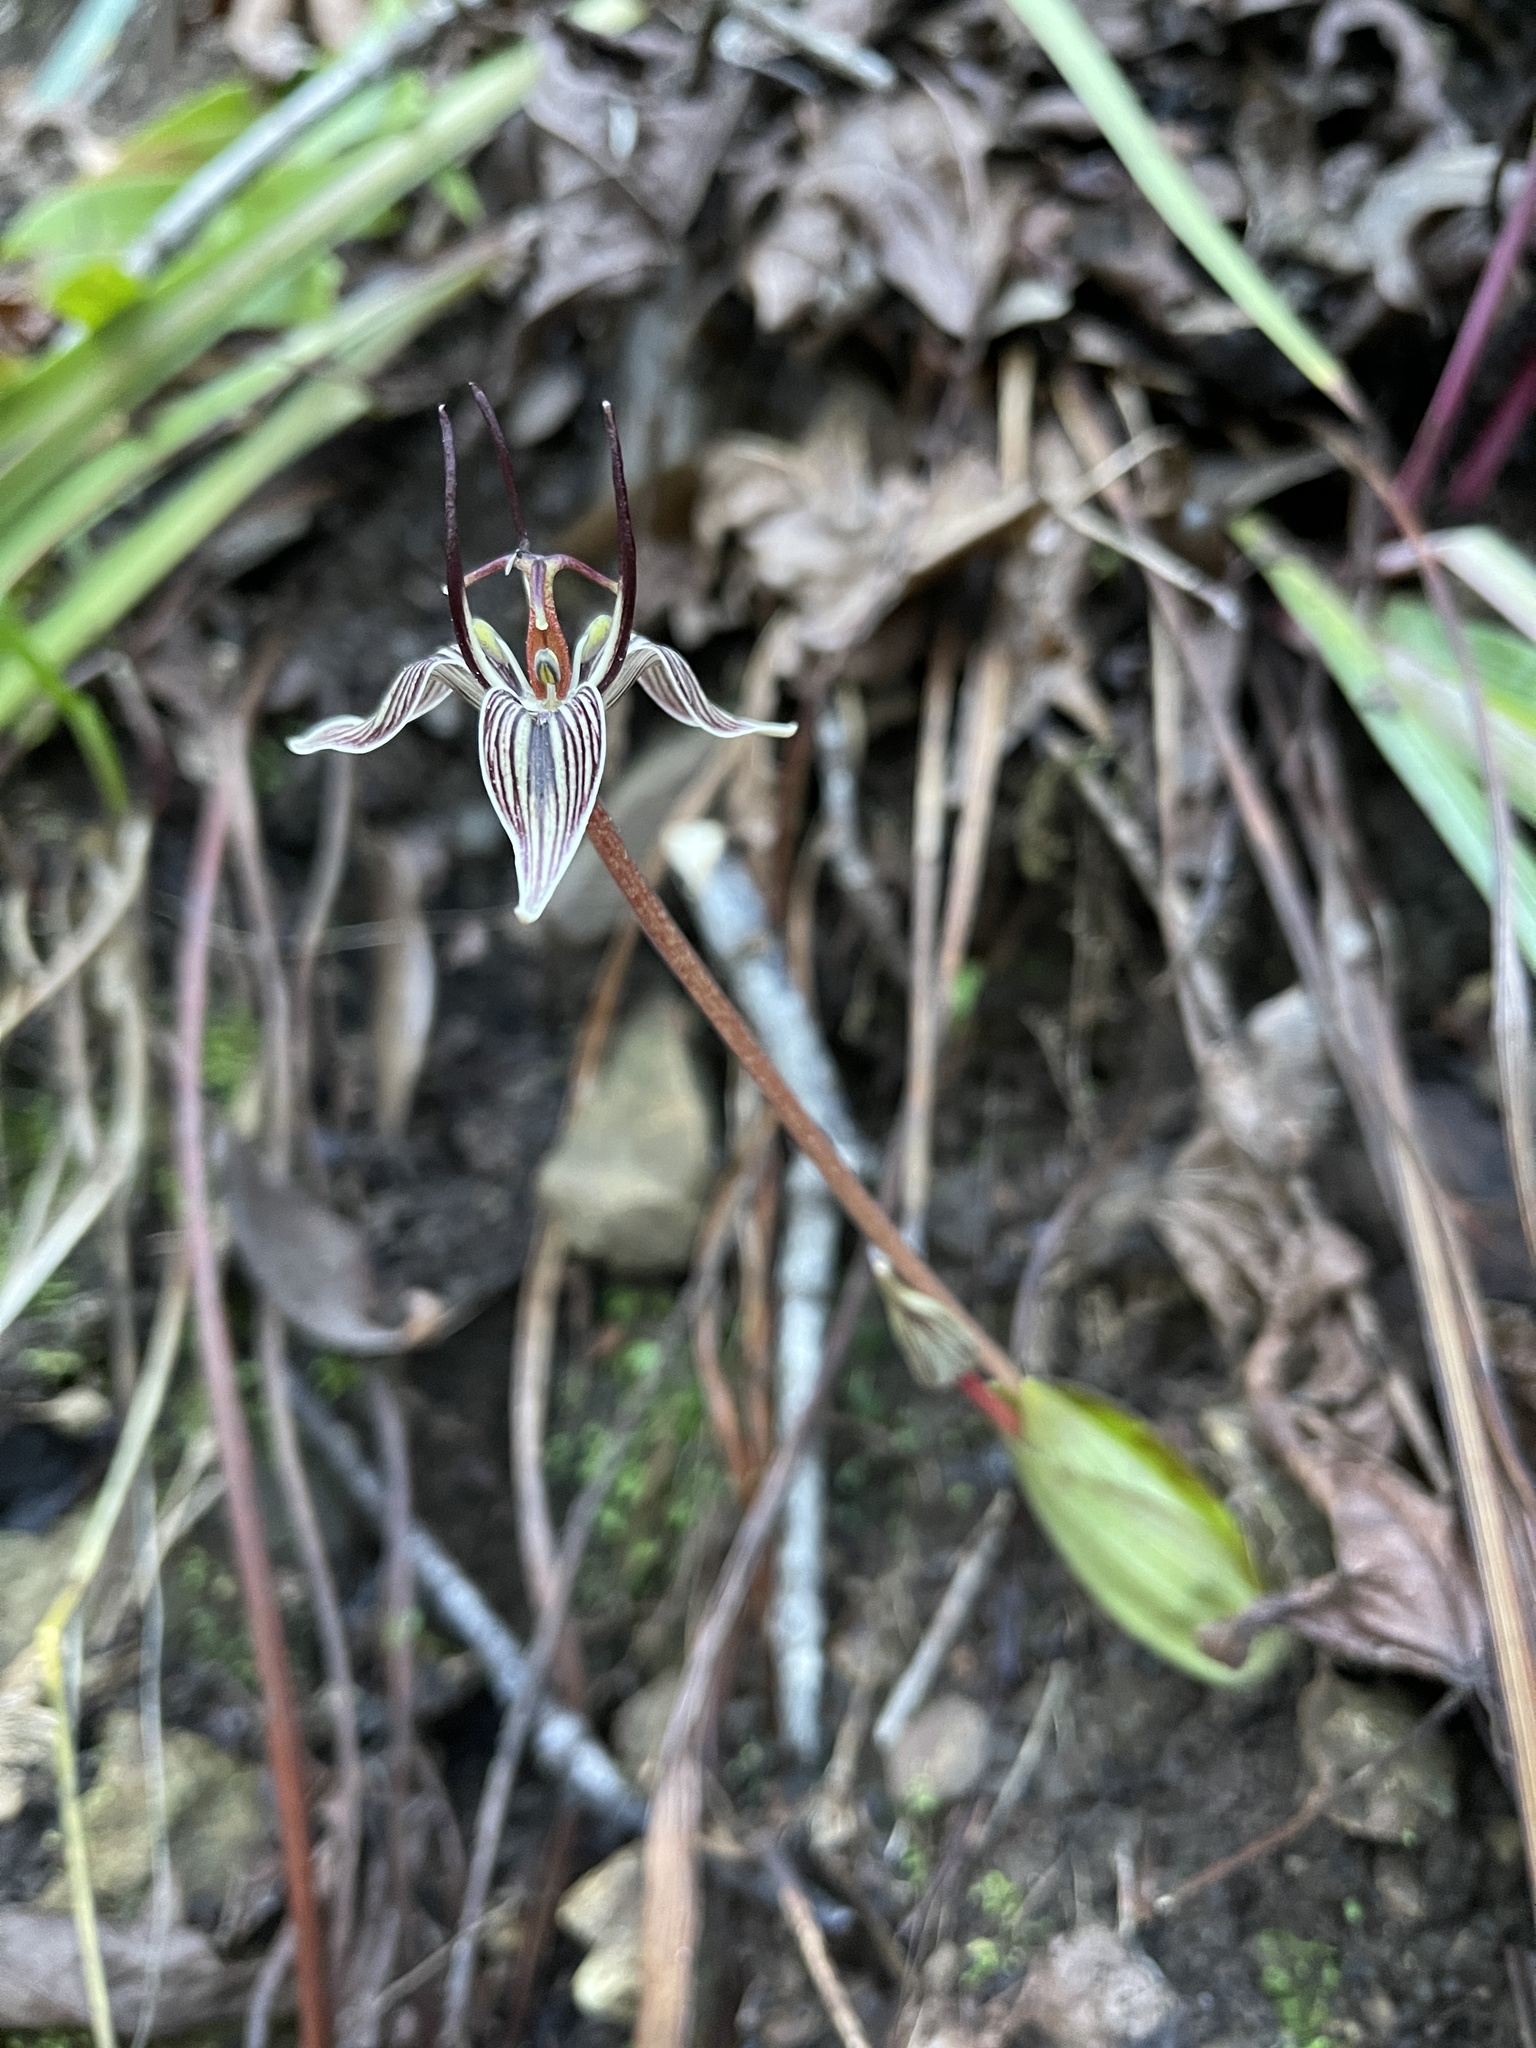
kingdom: Plantae
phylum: Tracheophyta
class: Liliopsida
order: Liliales
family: Liliaceae
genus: Scoliopus
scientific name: Scoliopus bigelovii
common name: Foetid adder's-tongue
